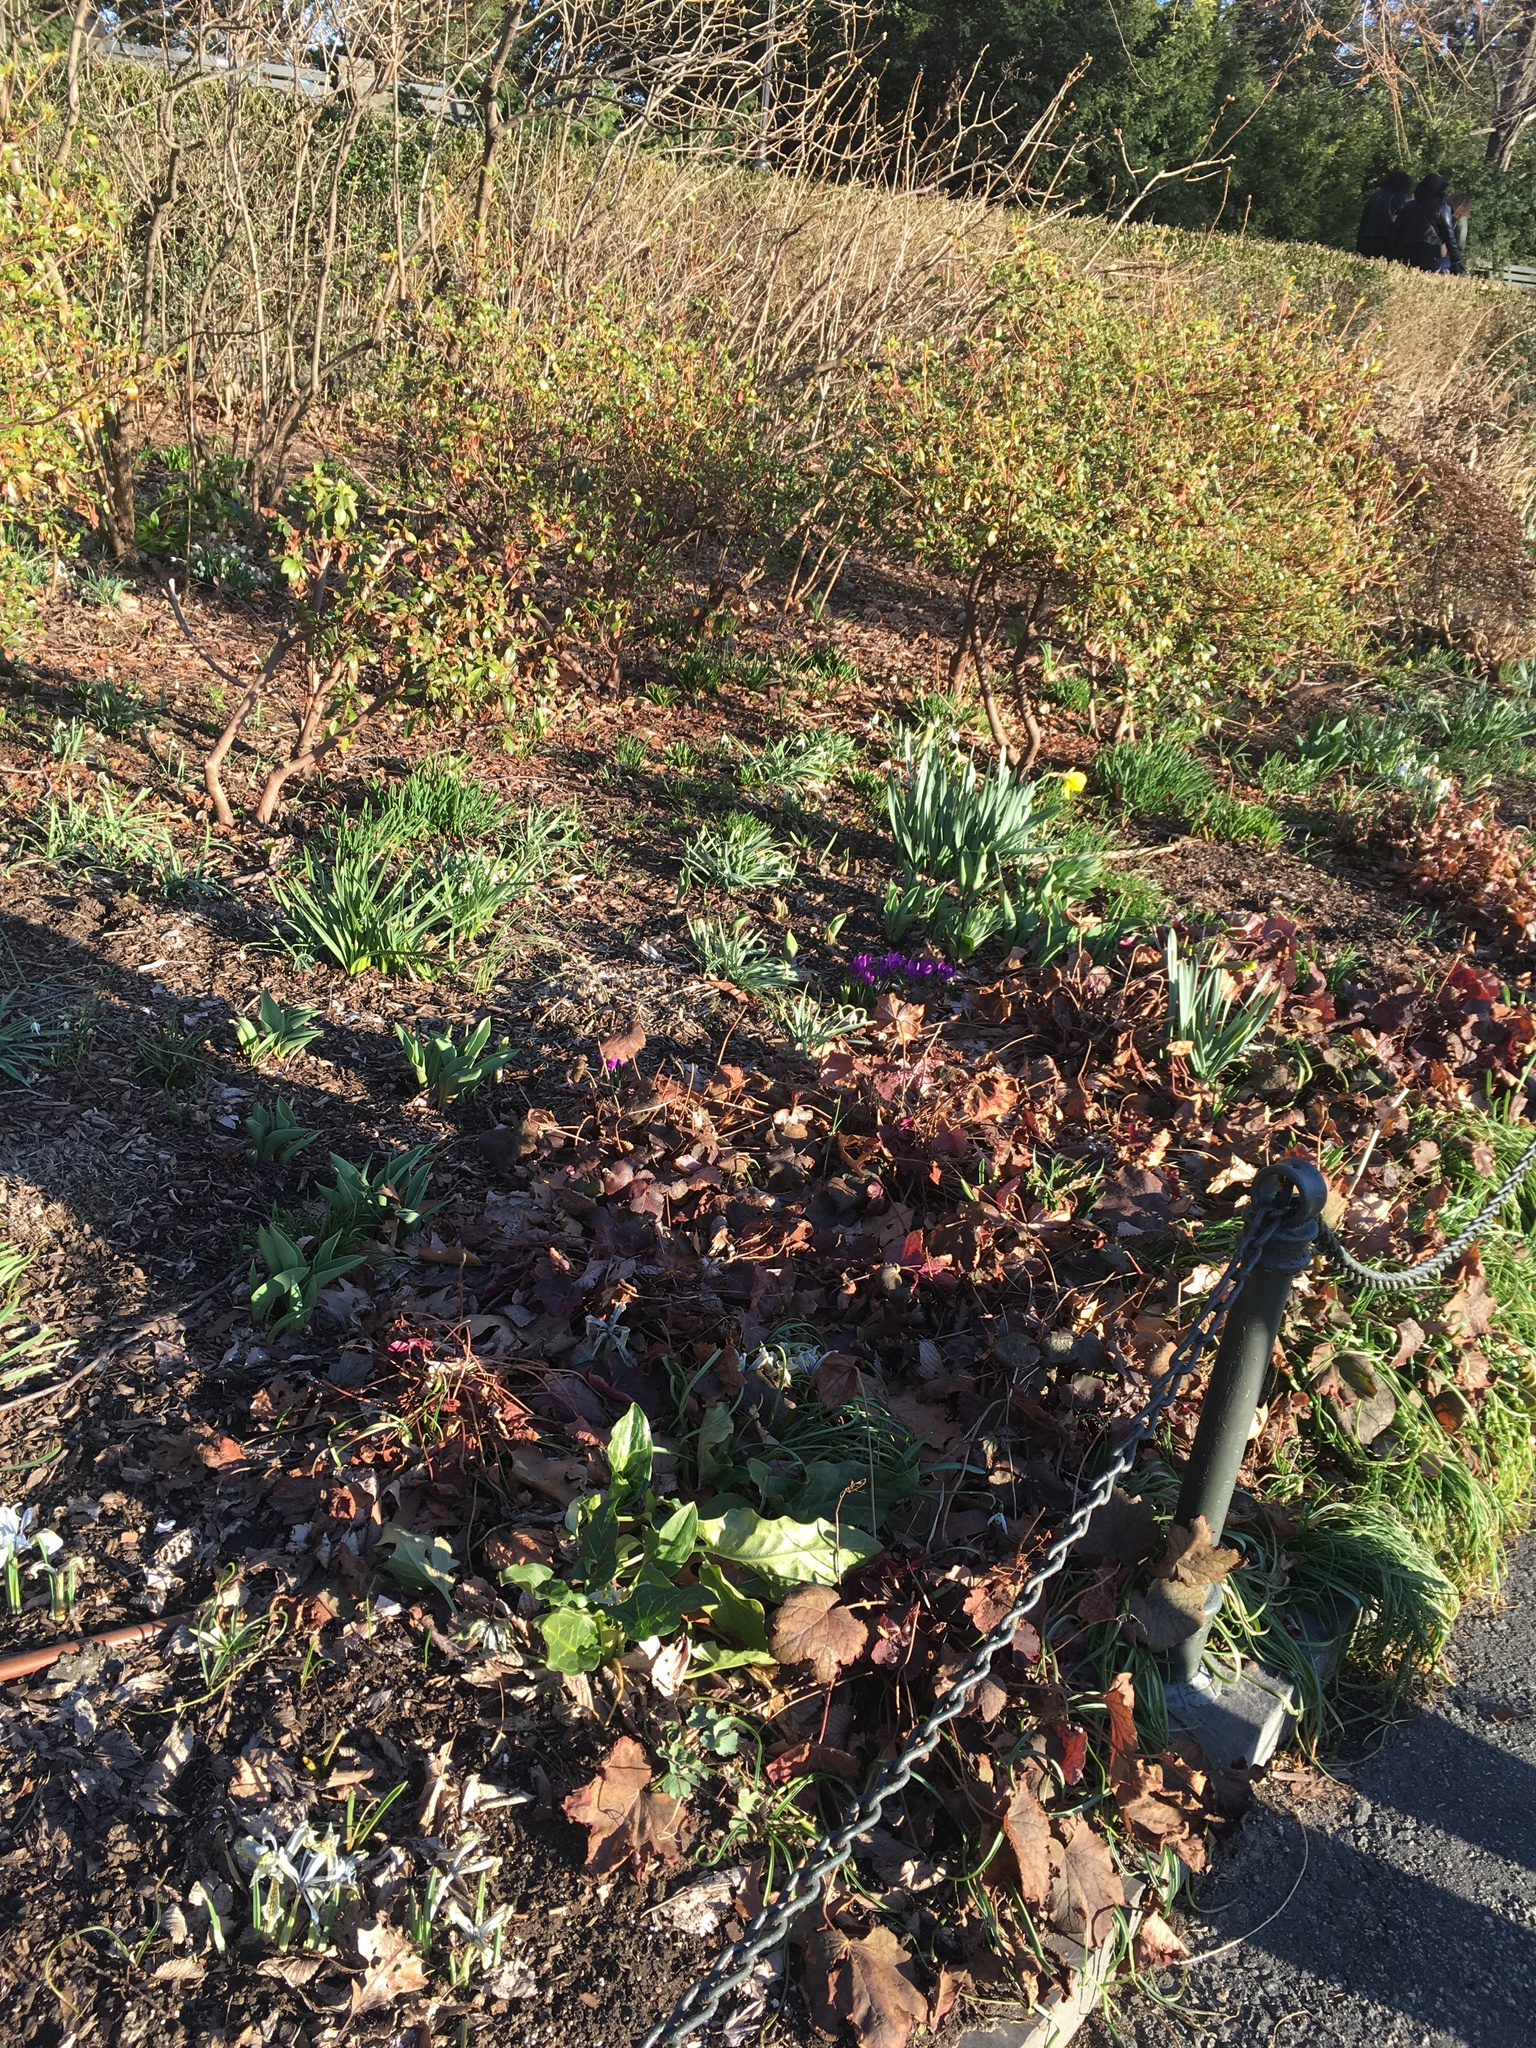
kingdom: Plantae
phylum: Tracheophyta
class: Liliopsida
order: Alismatales
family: Araceae
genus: Arum
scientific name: Arum italicum
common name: Italian lords-and-ladies
